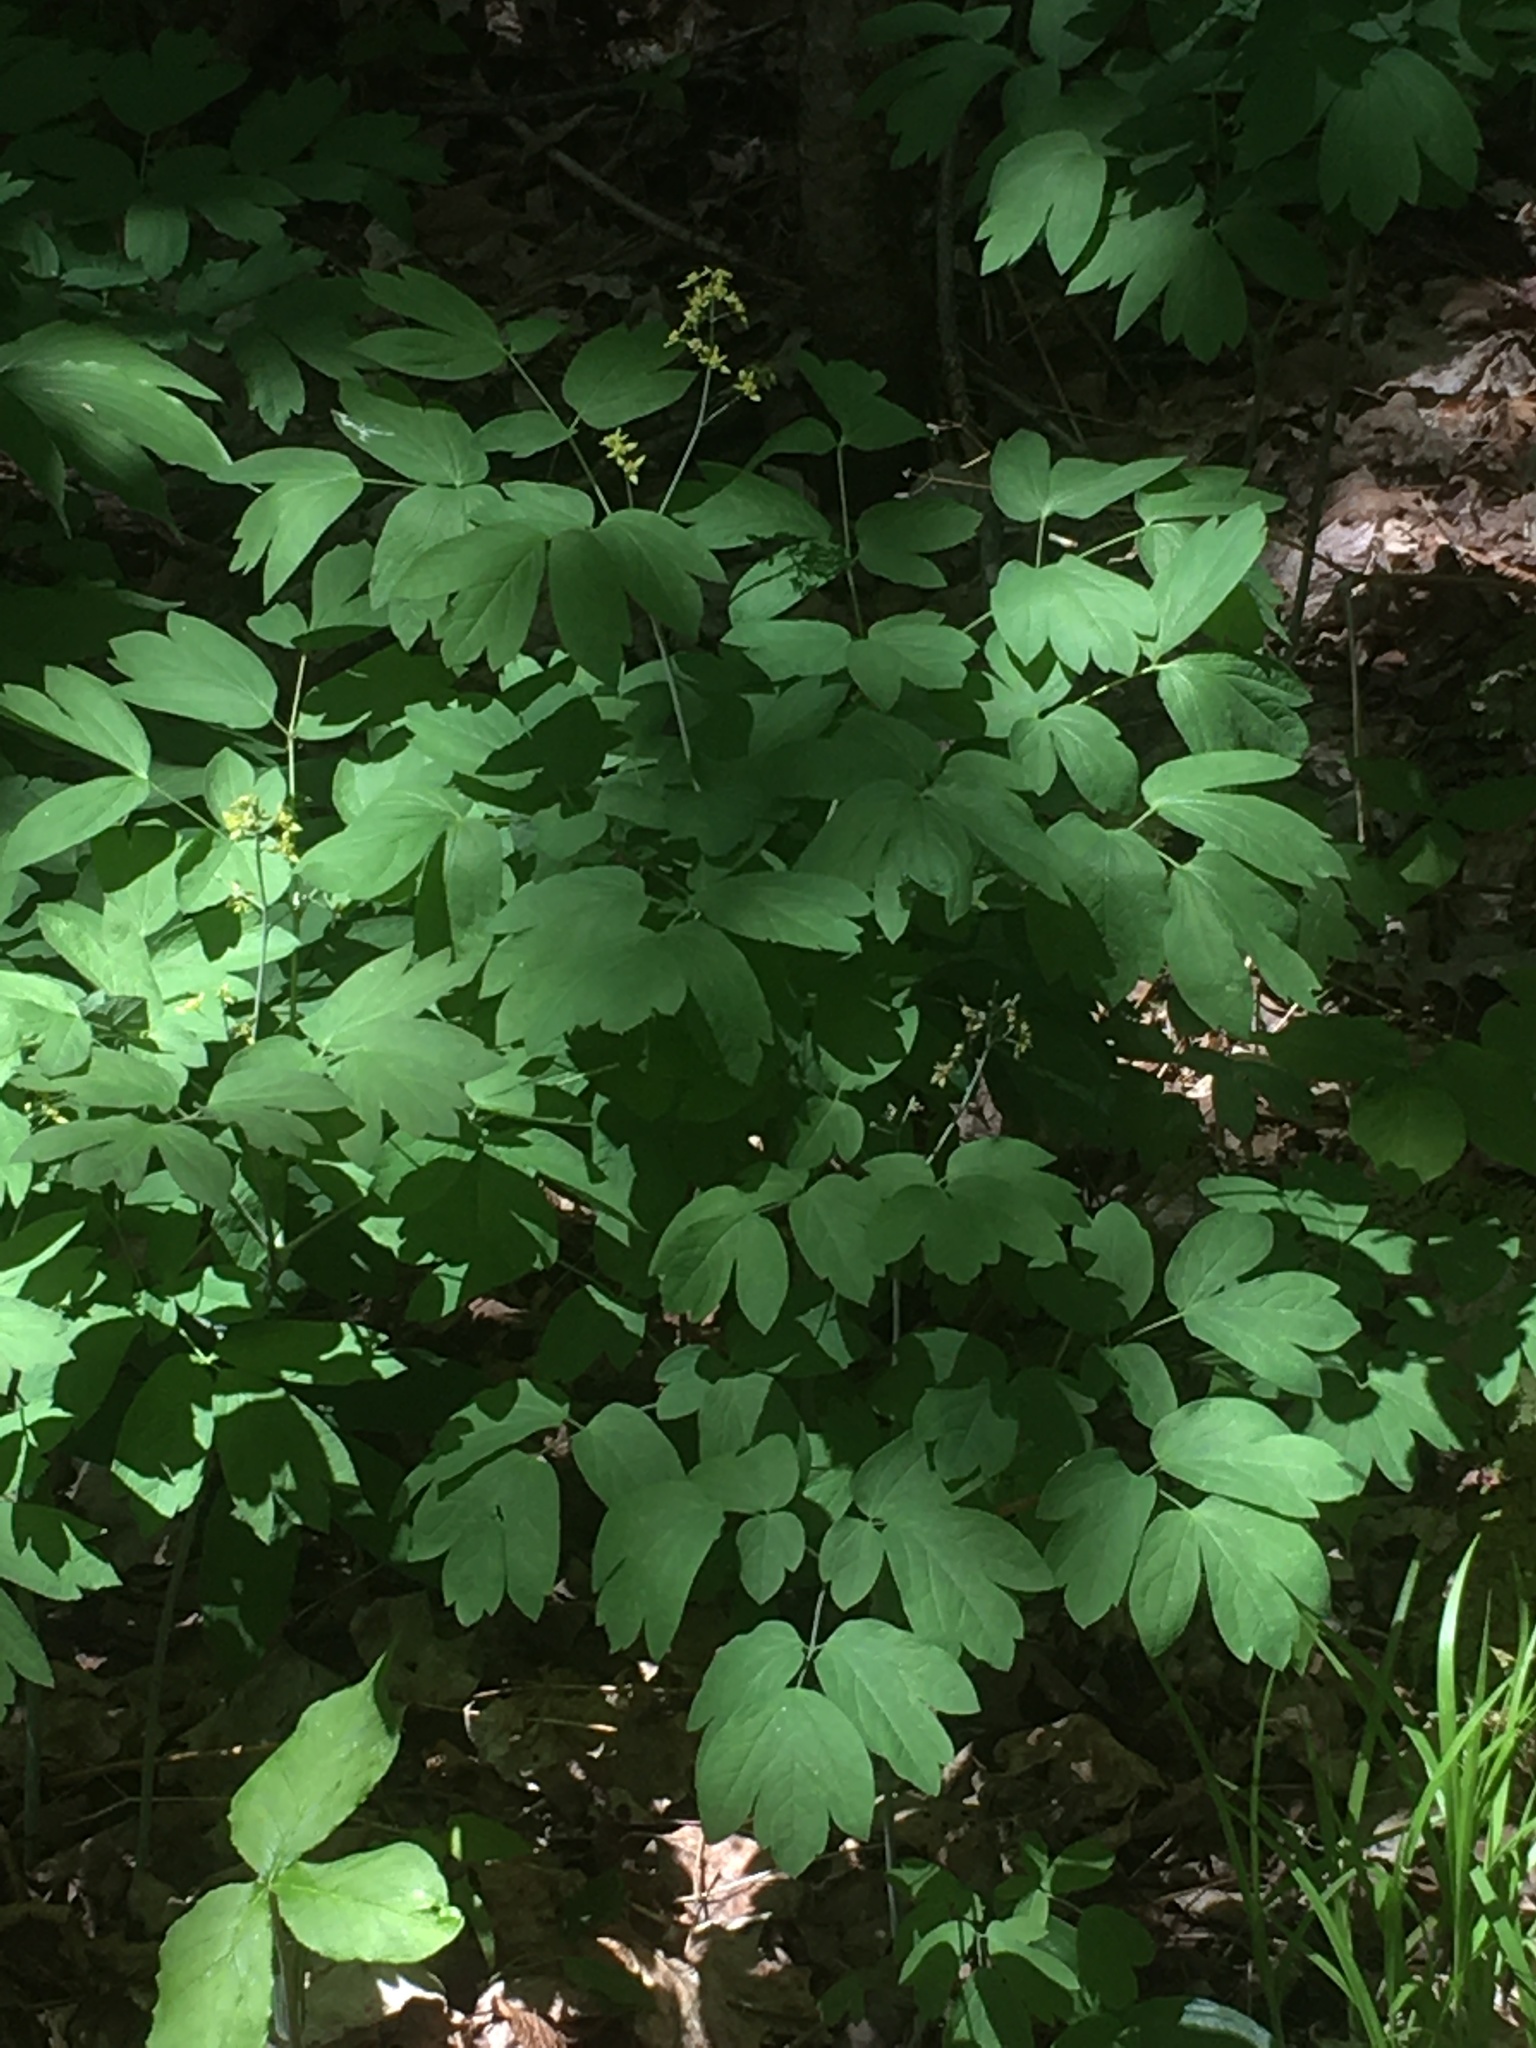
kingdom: Plantae
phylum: Tracheophyta
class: Magnoliopsida
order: Ranunculales
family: Berberidaceae
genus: Caulophyllum
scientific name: Caulophyllum thalictroides
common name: Blue cohosh
